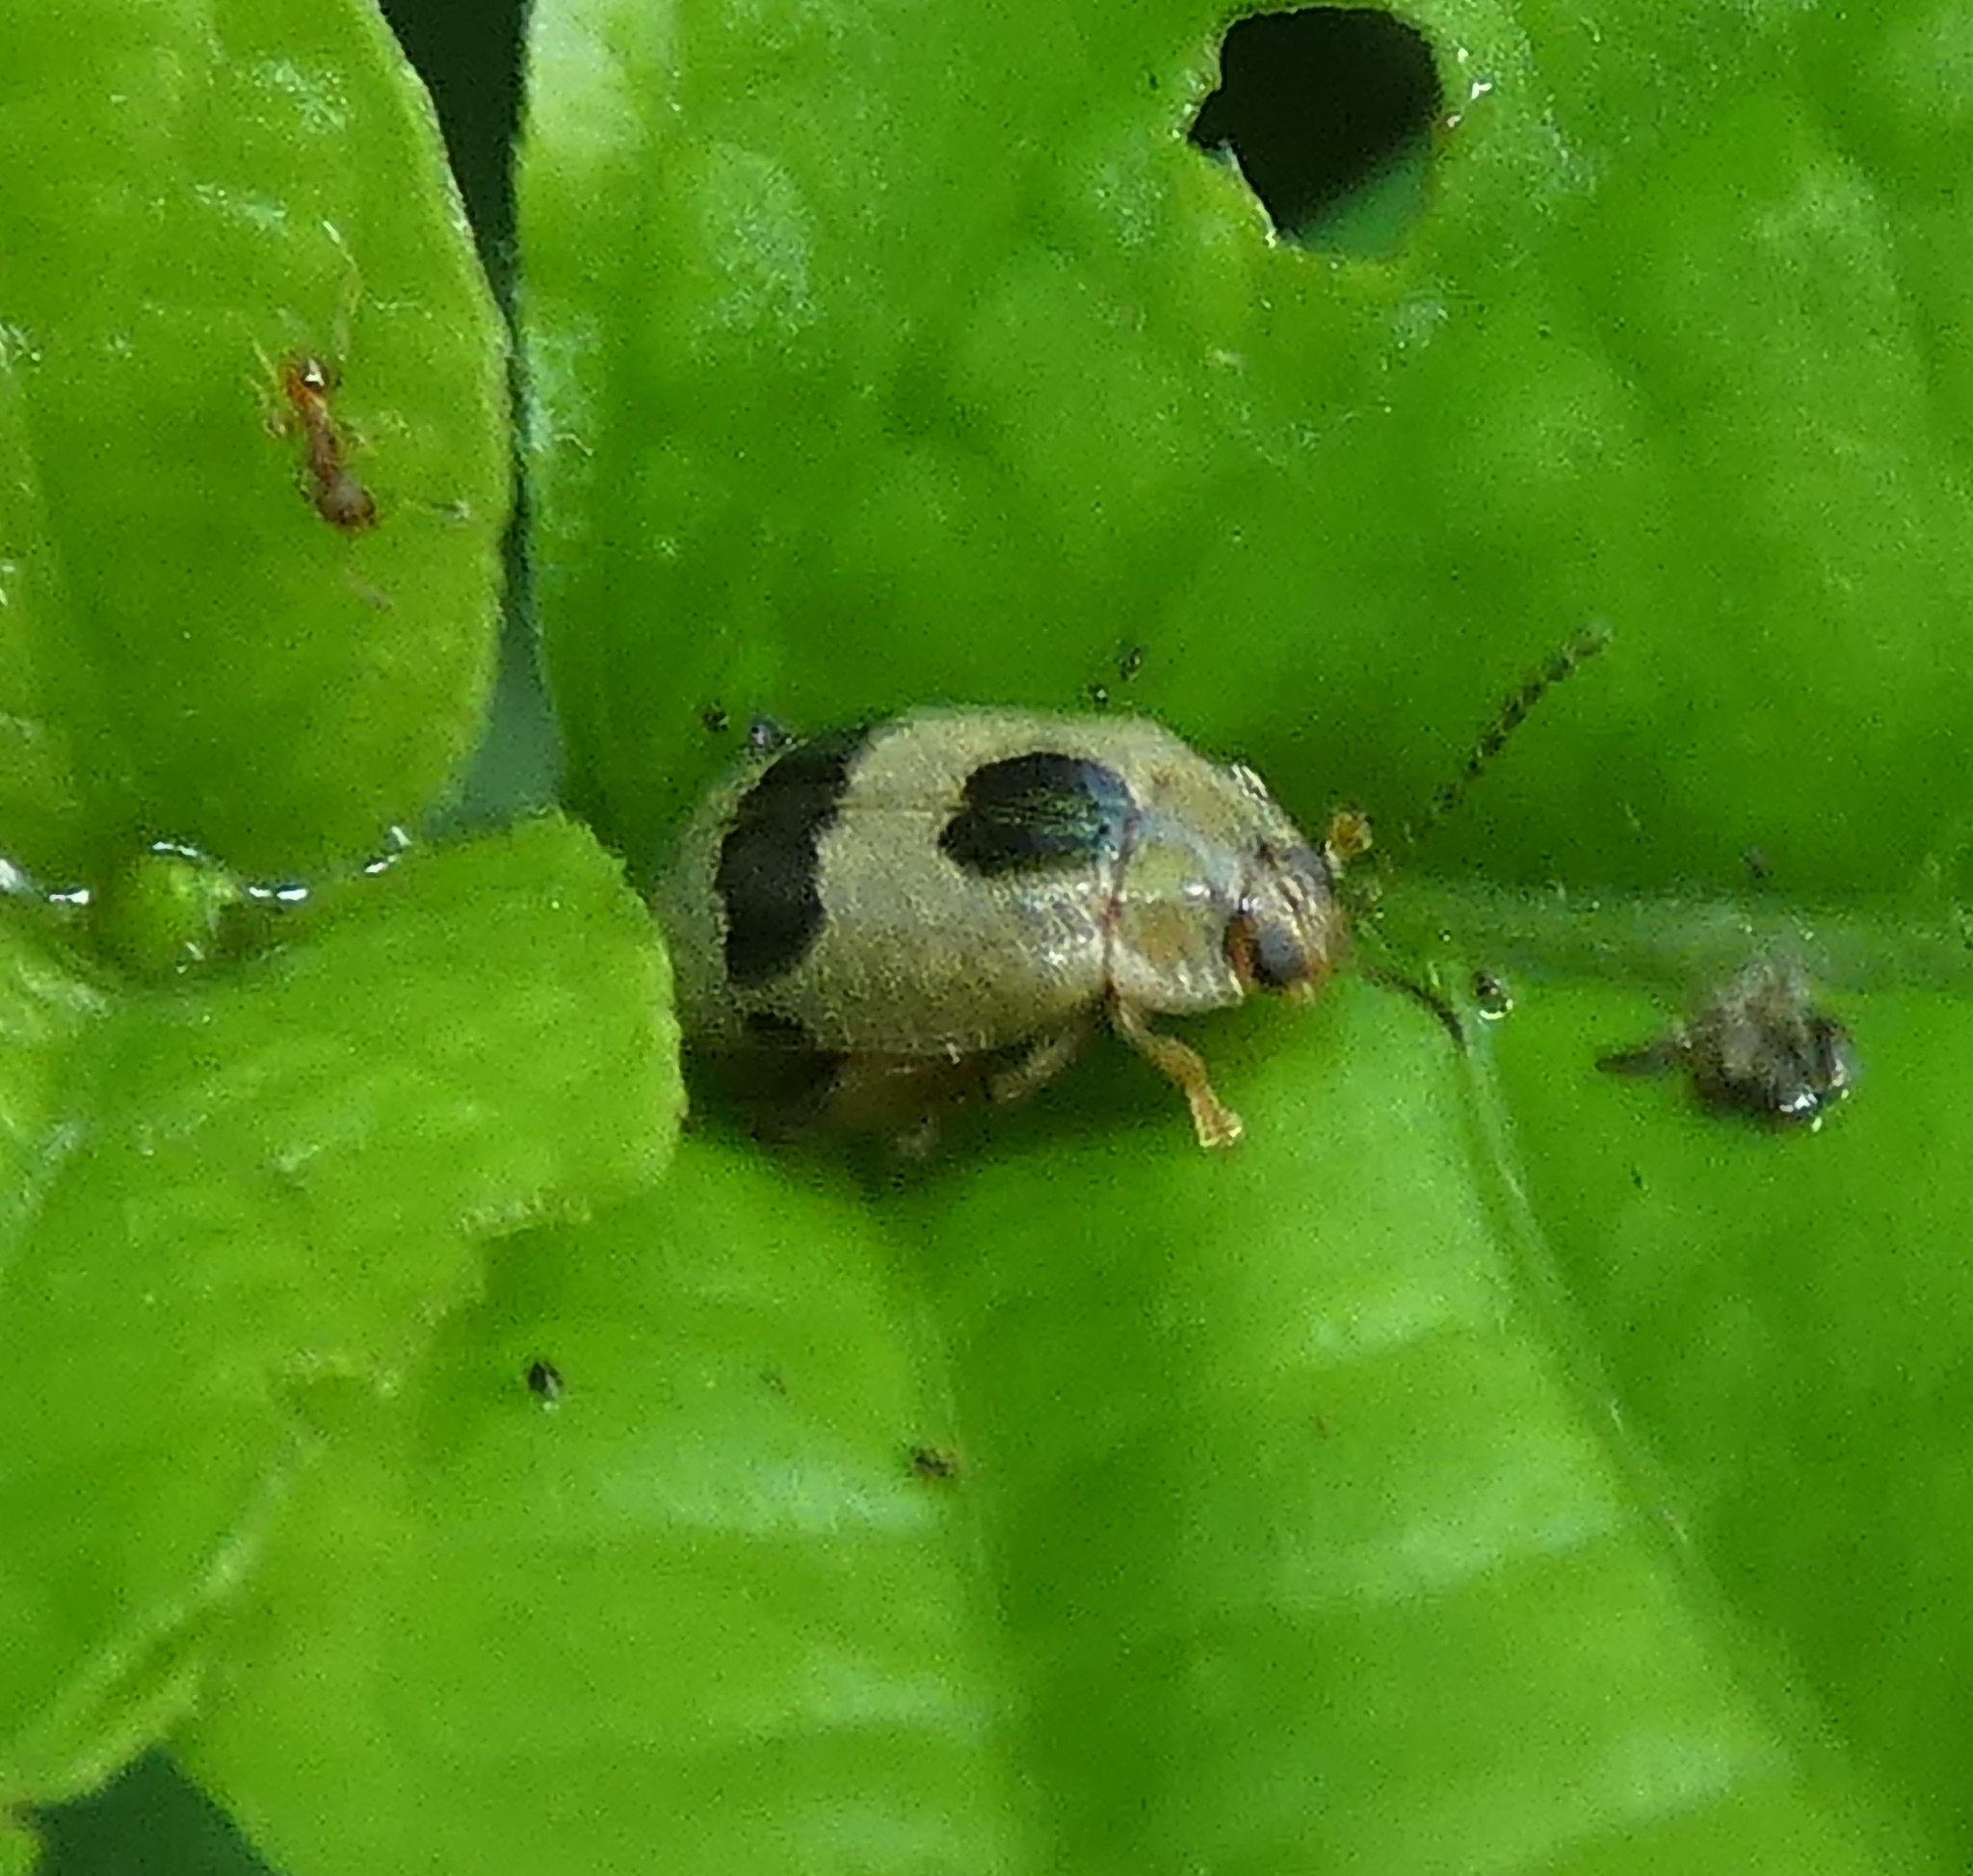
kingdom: Animalia
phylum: Arthropoda
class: Insecta
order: Coleoptera
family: Chrysomelidae
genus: Alagoasa
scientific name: Alagoasa
